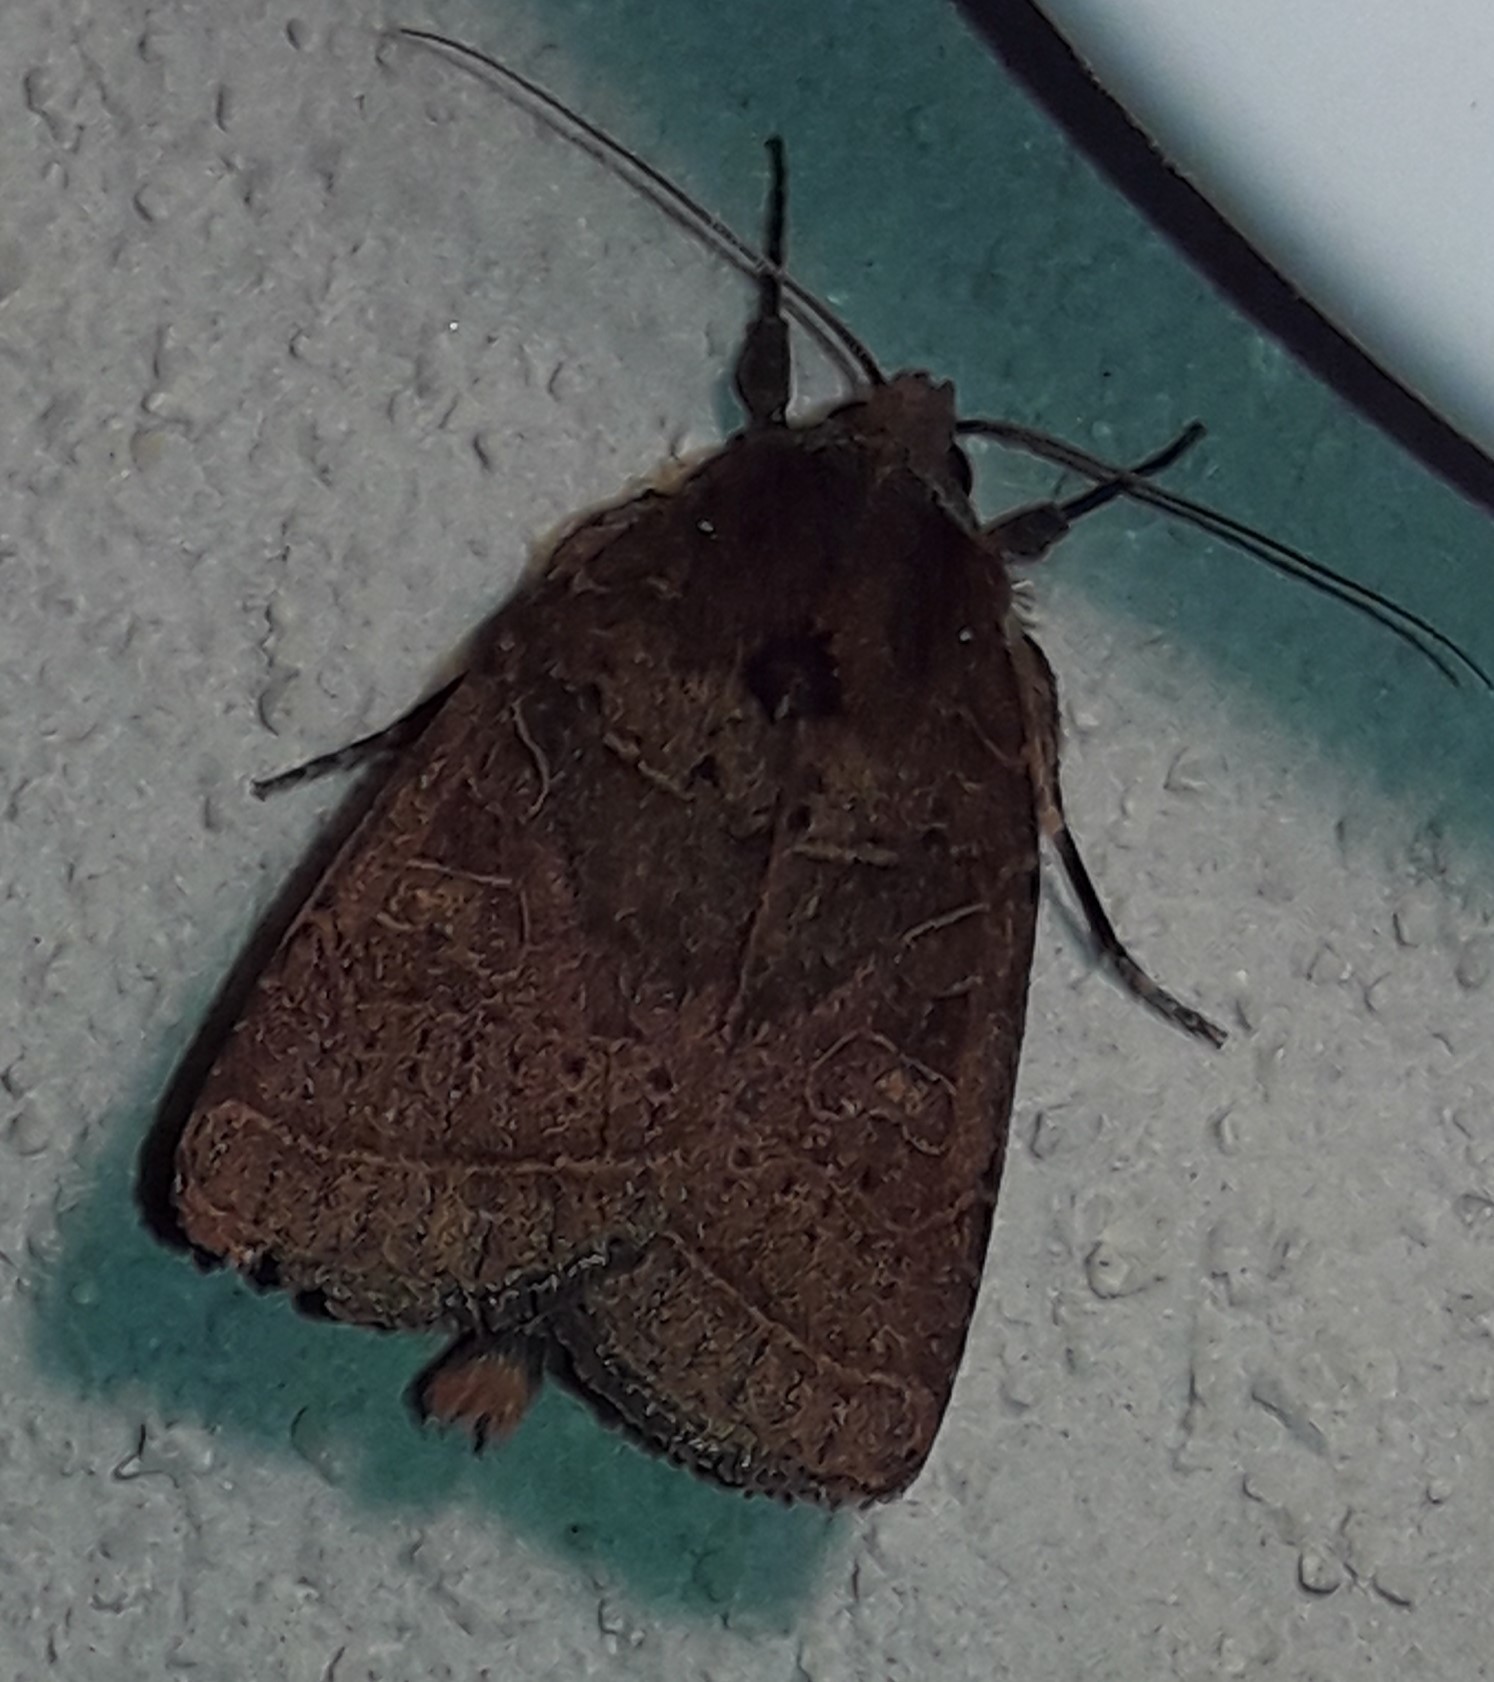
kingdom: Animalia
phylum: Arthropoda
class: Insecta
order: Lepidoptera
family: Noctuidae
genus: Orthodes
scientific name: Orthodes lanaris
